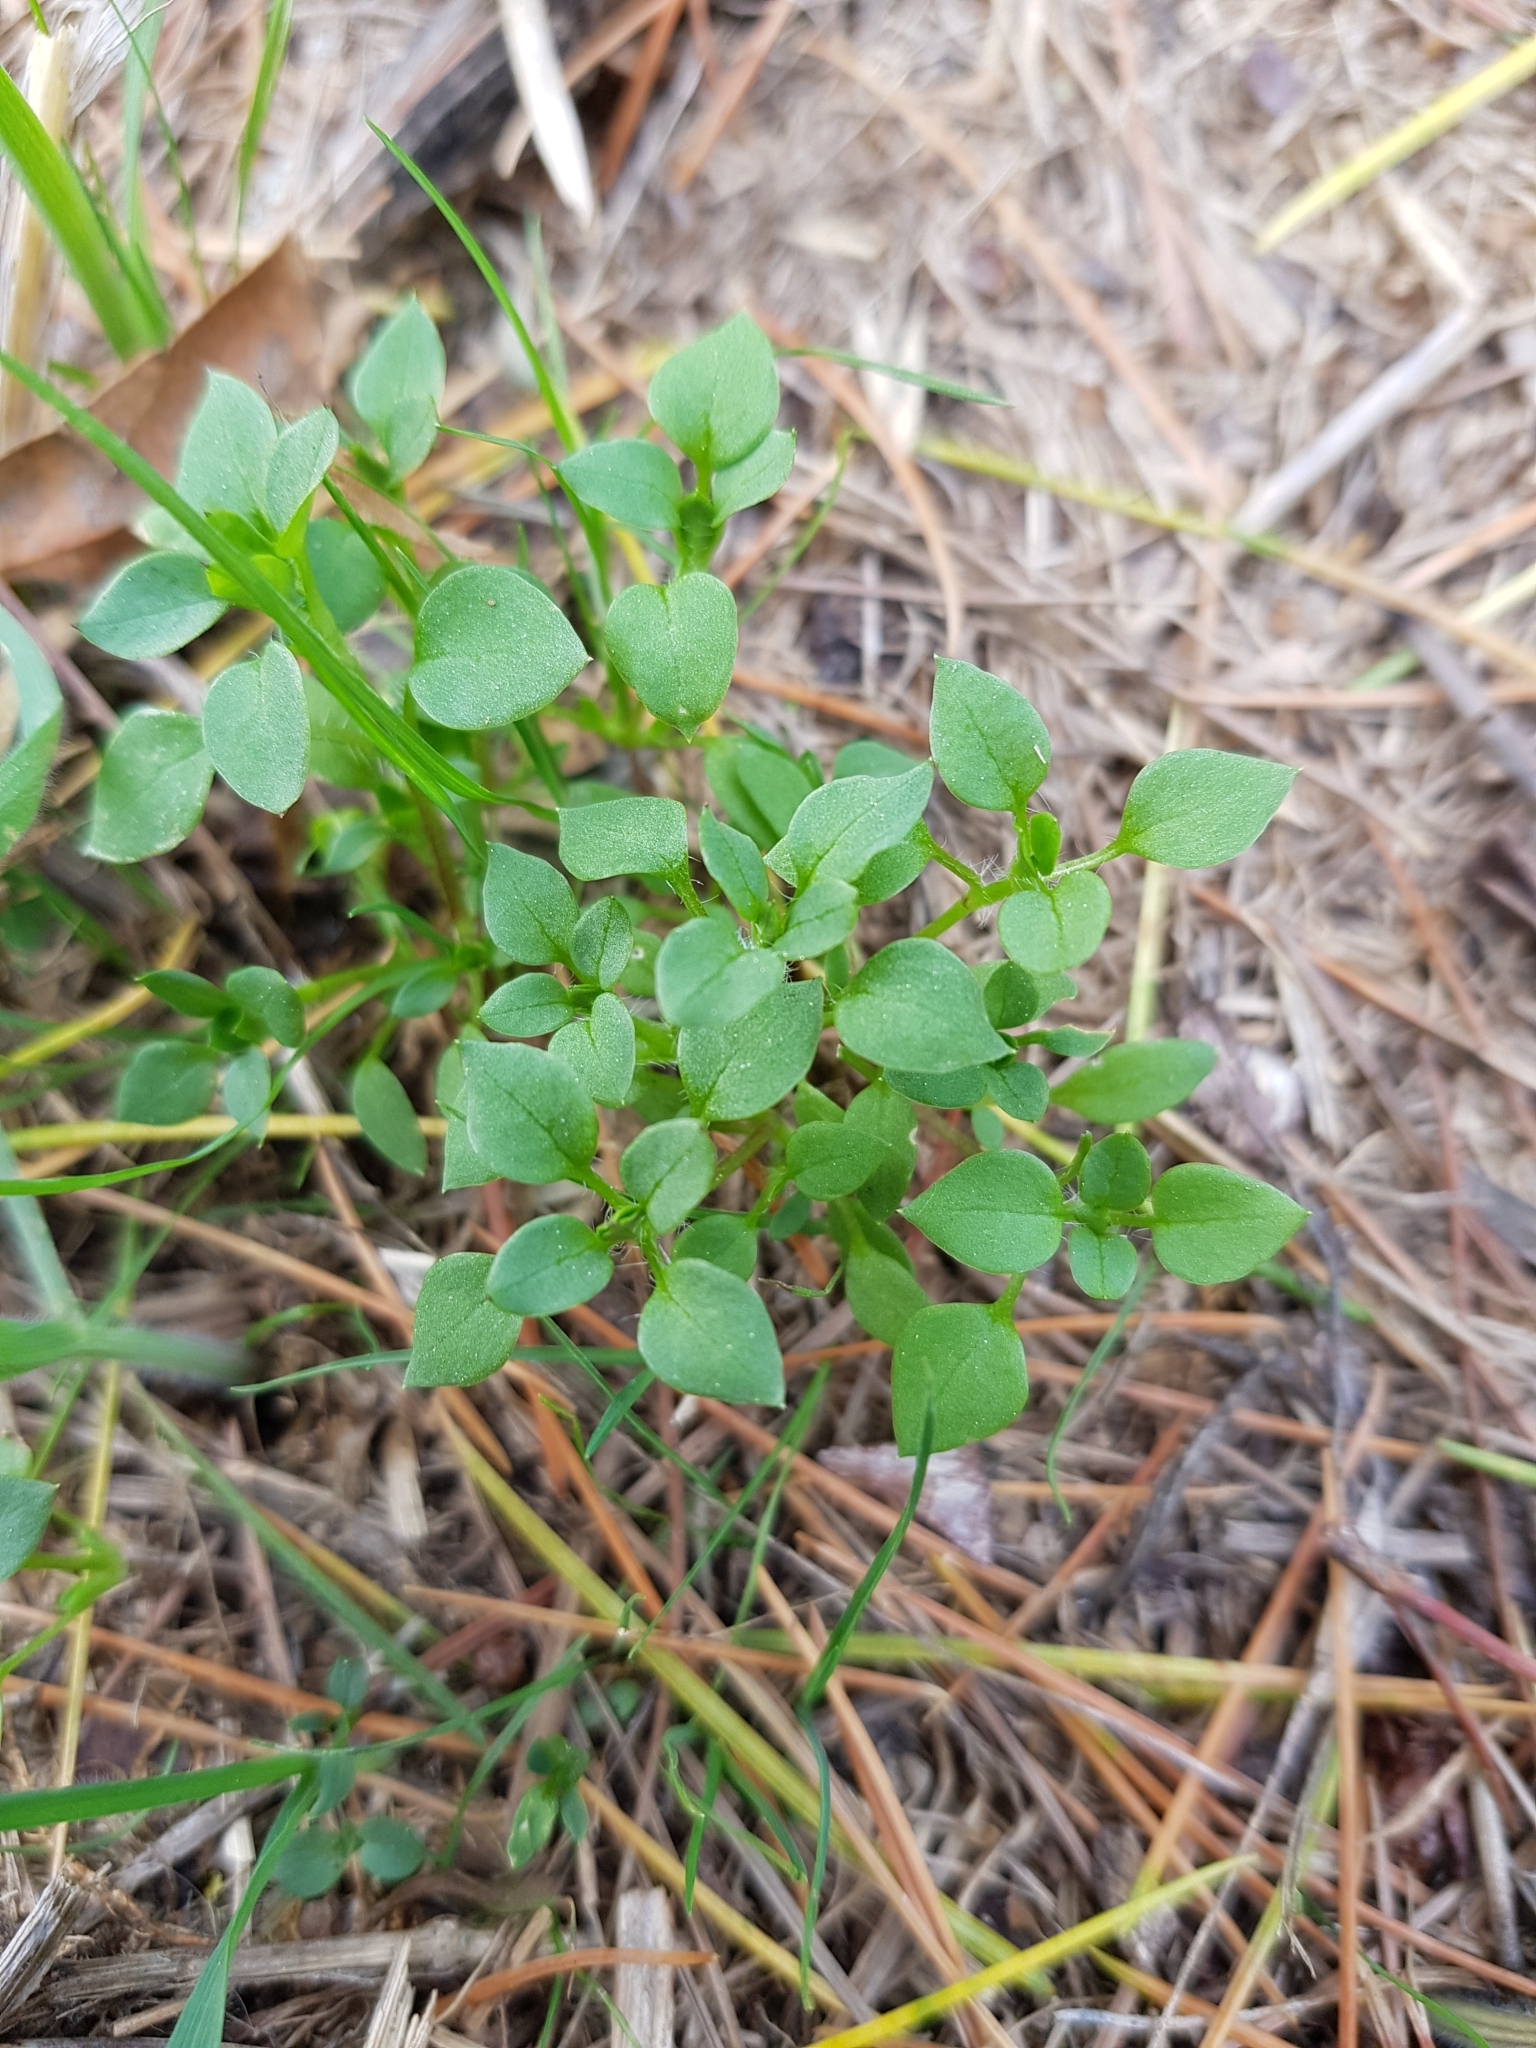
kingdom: Plantae
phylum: Tracheophyta
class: Magnoliopsida
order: Caryophyllales
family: Caryophyllaceae
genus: Stellaria
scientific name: Stellaria media
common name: Common chickweed
